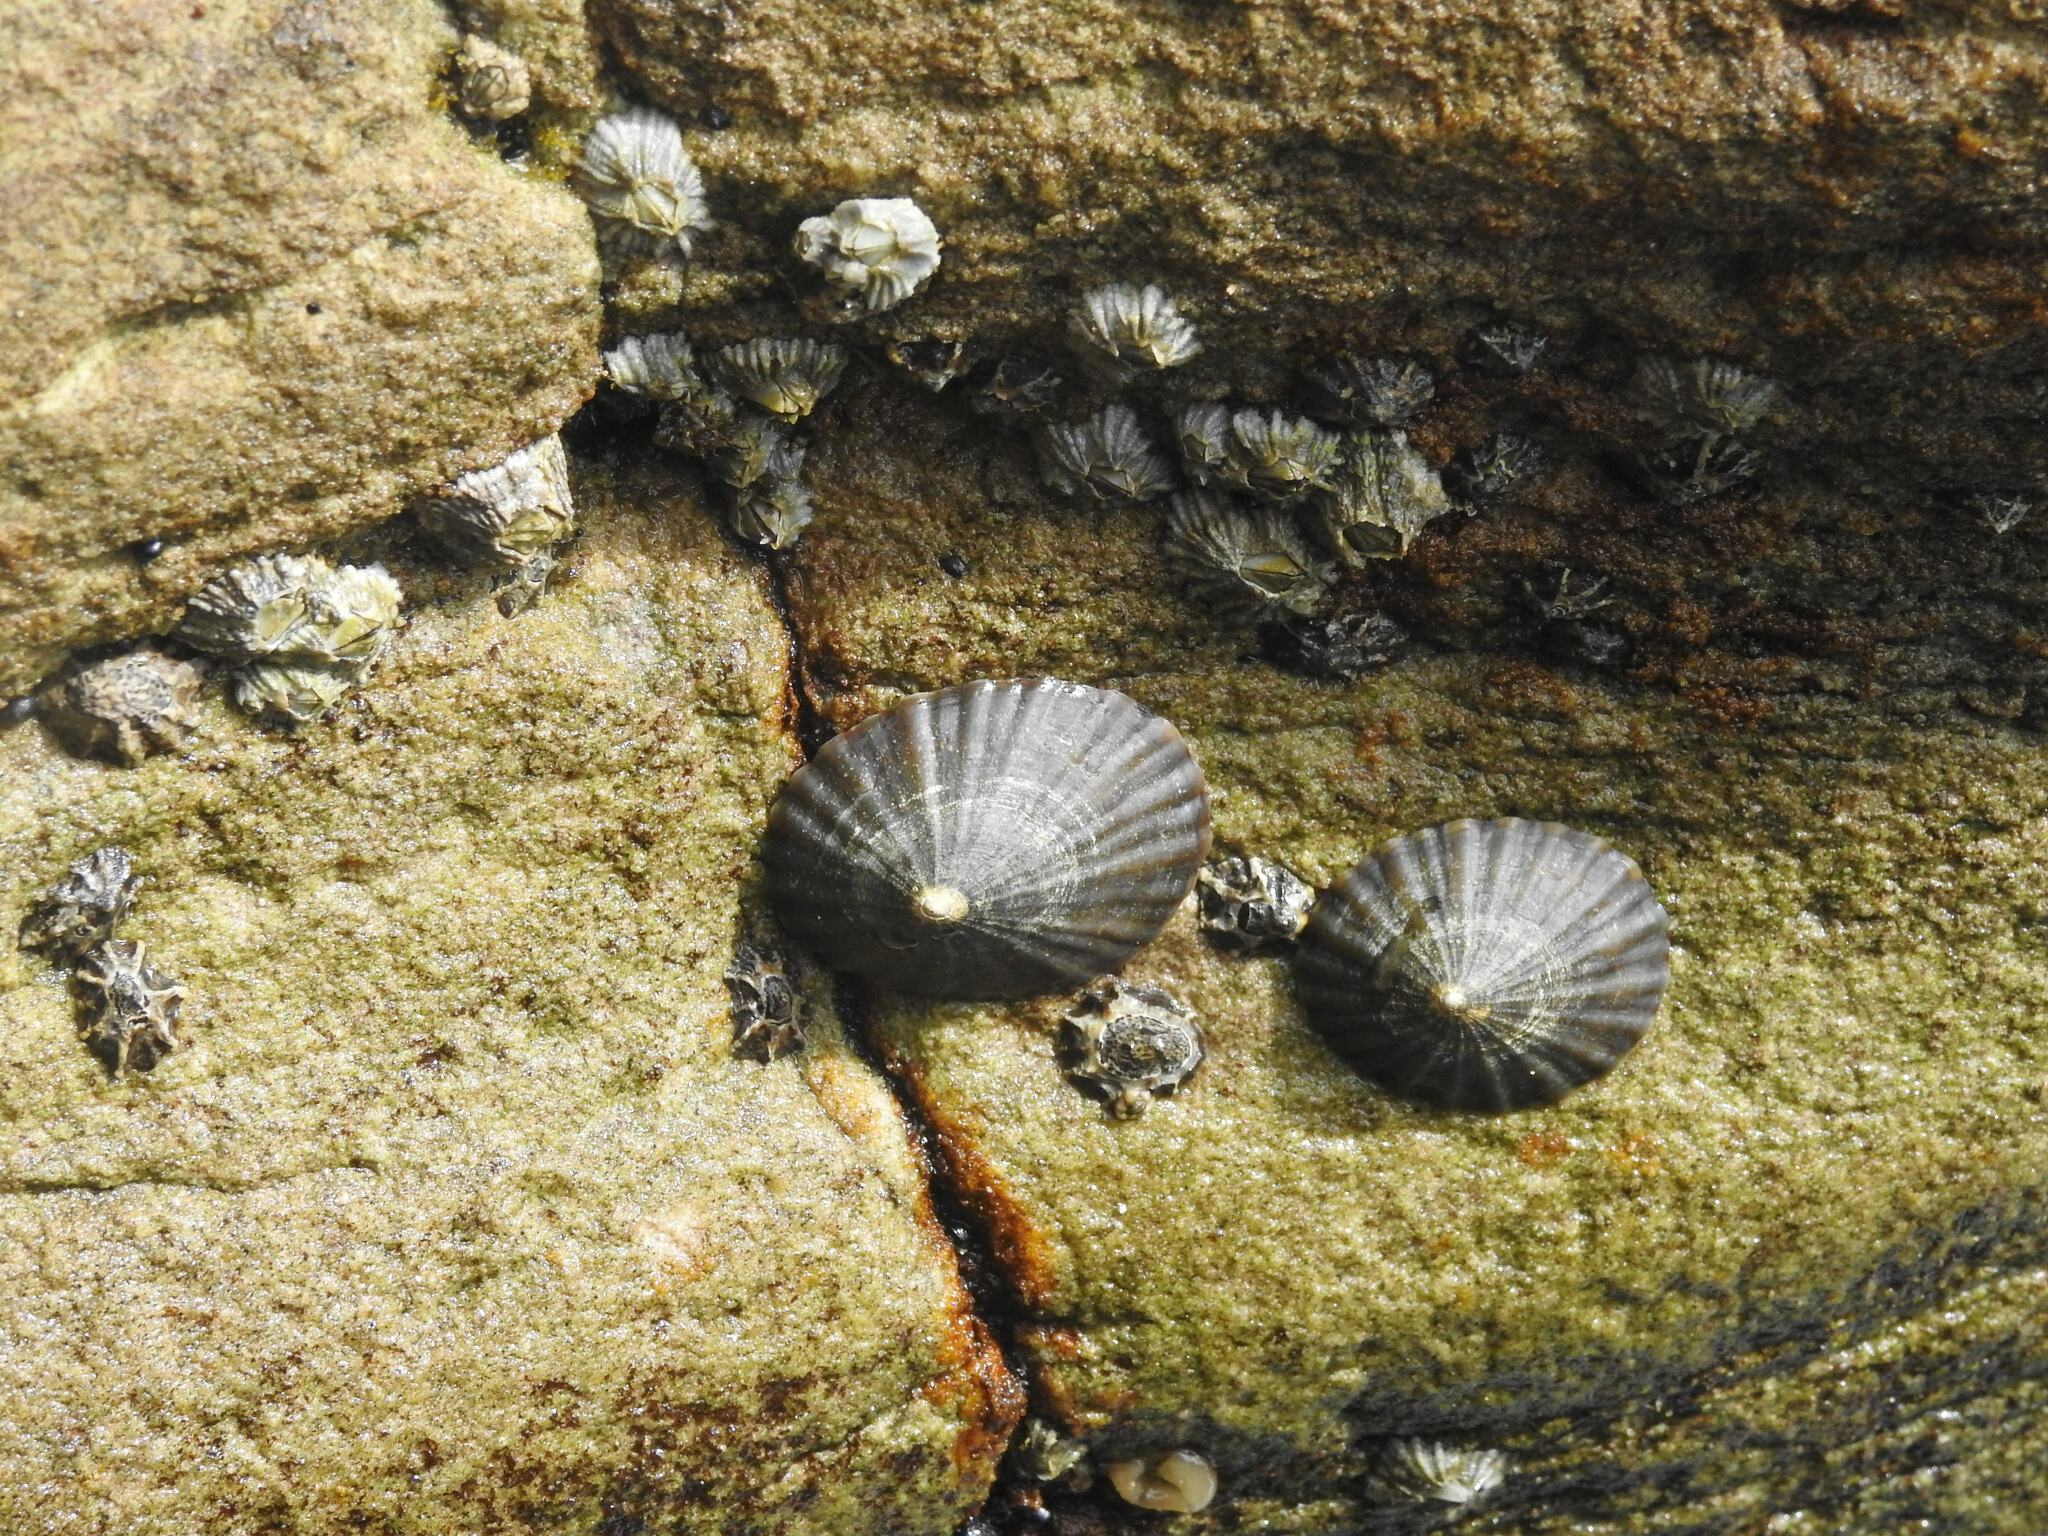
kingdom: Animalia
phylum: Mollusca
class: Gastropoda
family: Nacellidae
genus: Cellana
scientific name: Cellana solida
